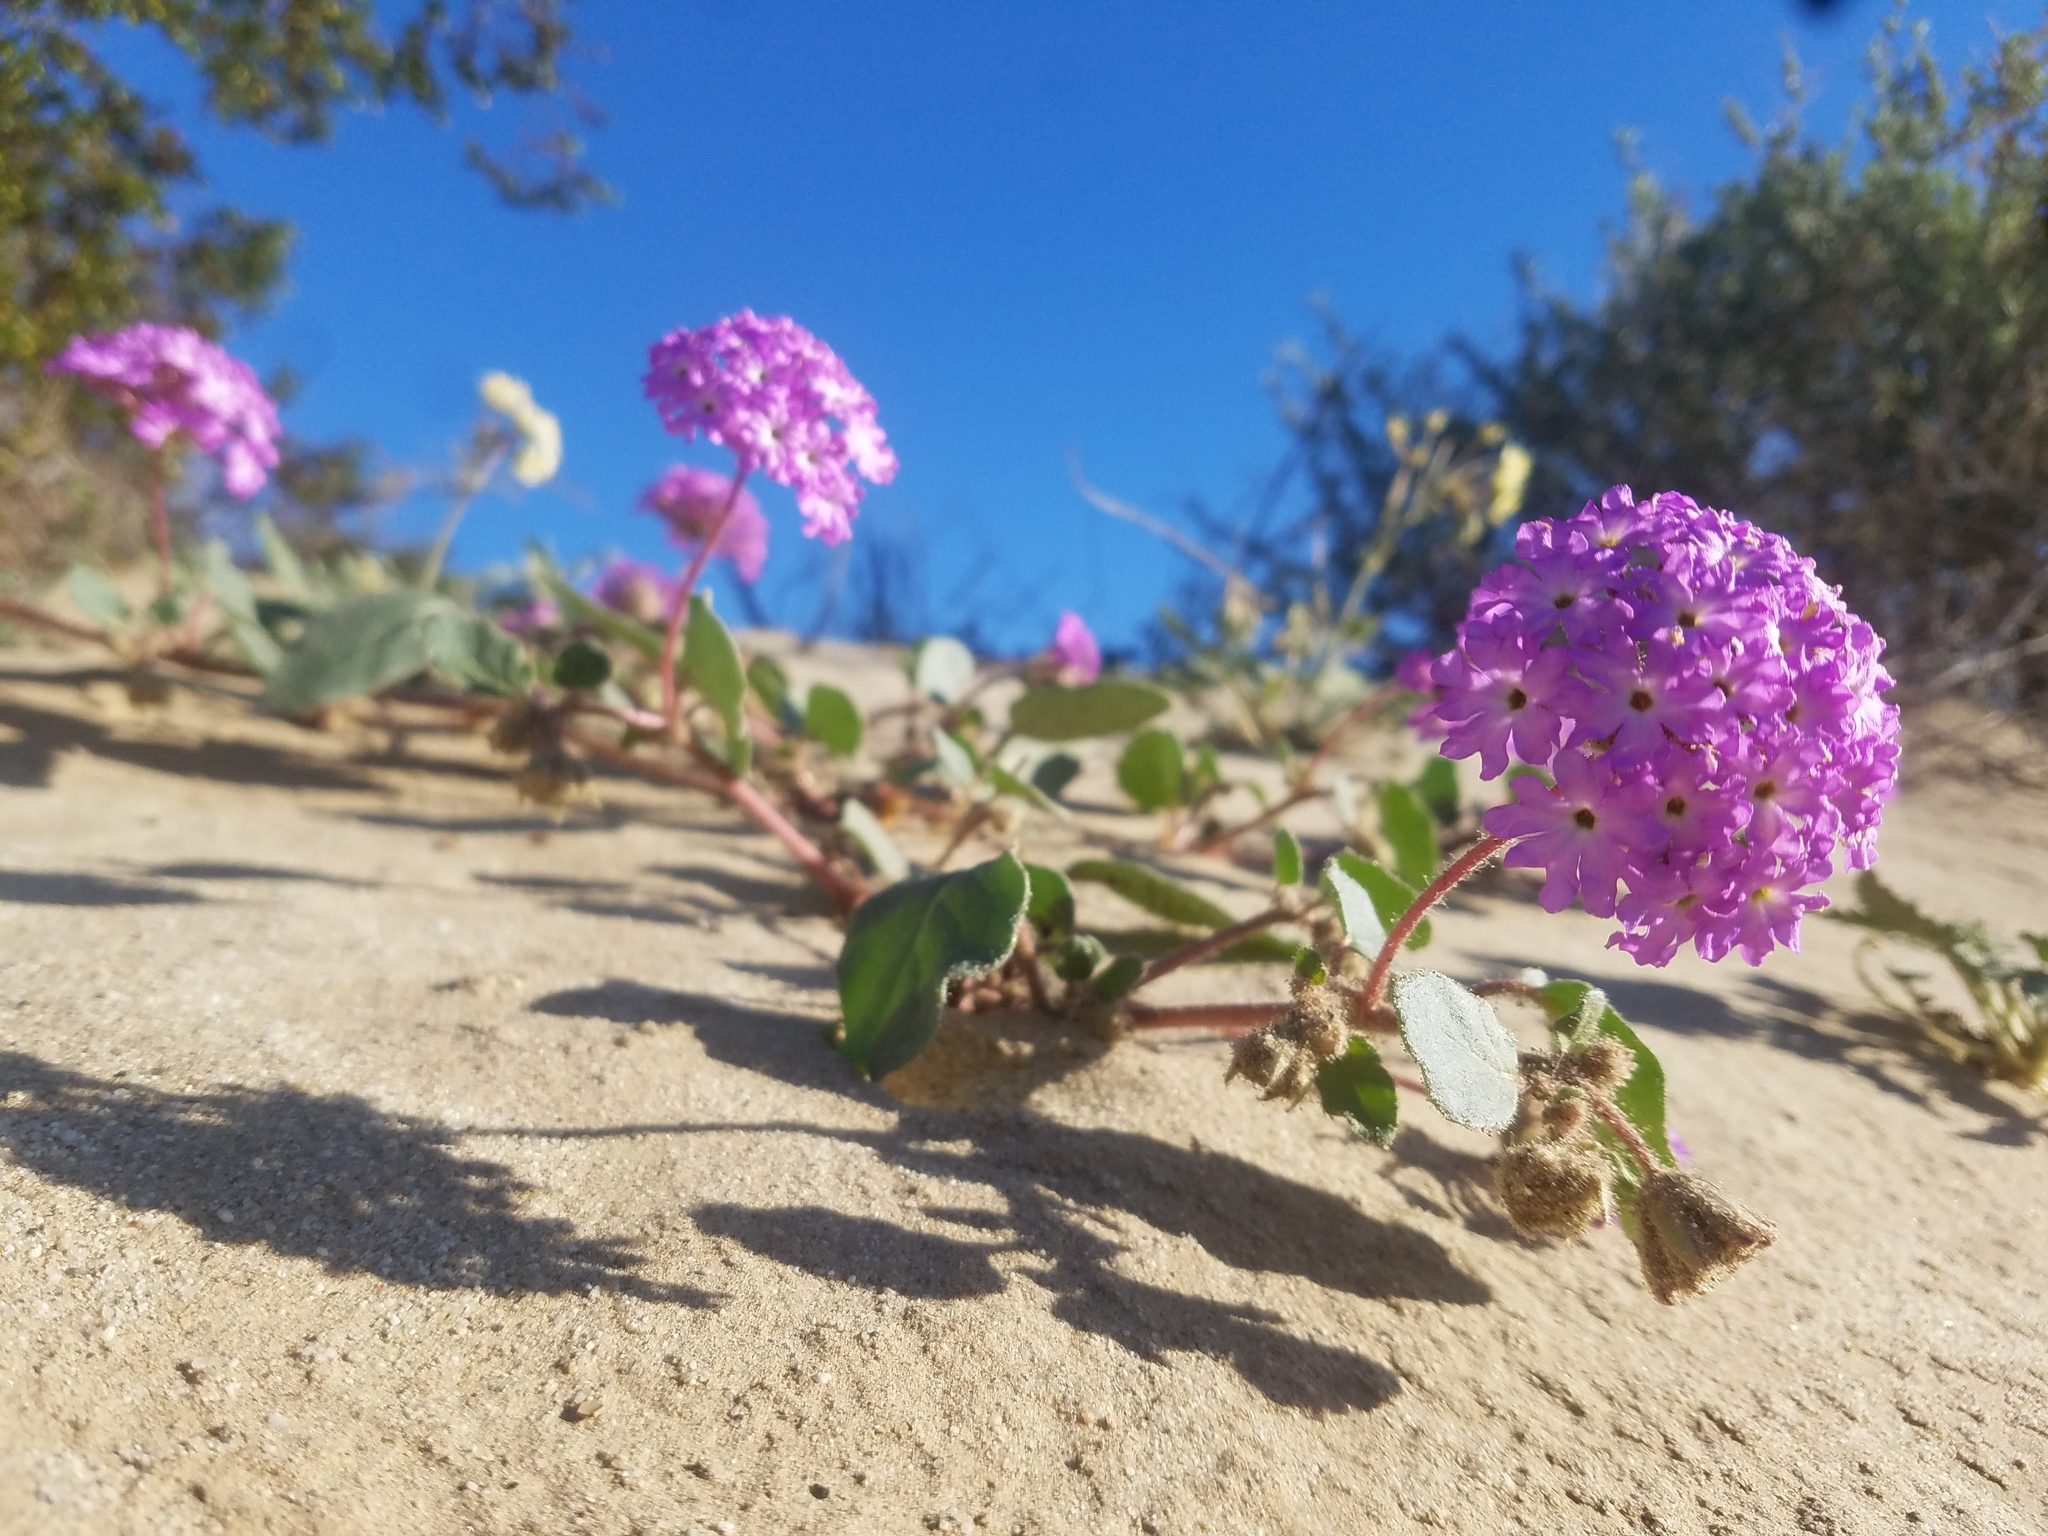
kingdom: Plantae
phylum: Tracheophyta
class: Magnoliopsida
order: Caryophyllales
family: Nyctaginaceae
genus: Abronia
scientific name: Abronia villosa
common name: Desert sand-verbena
